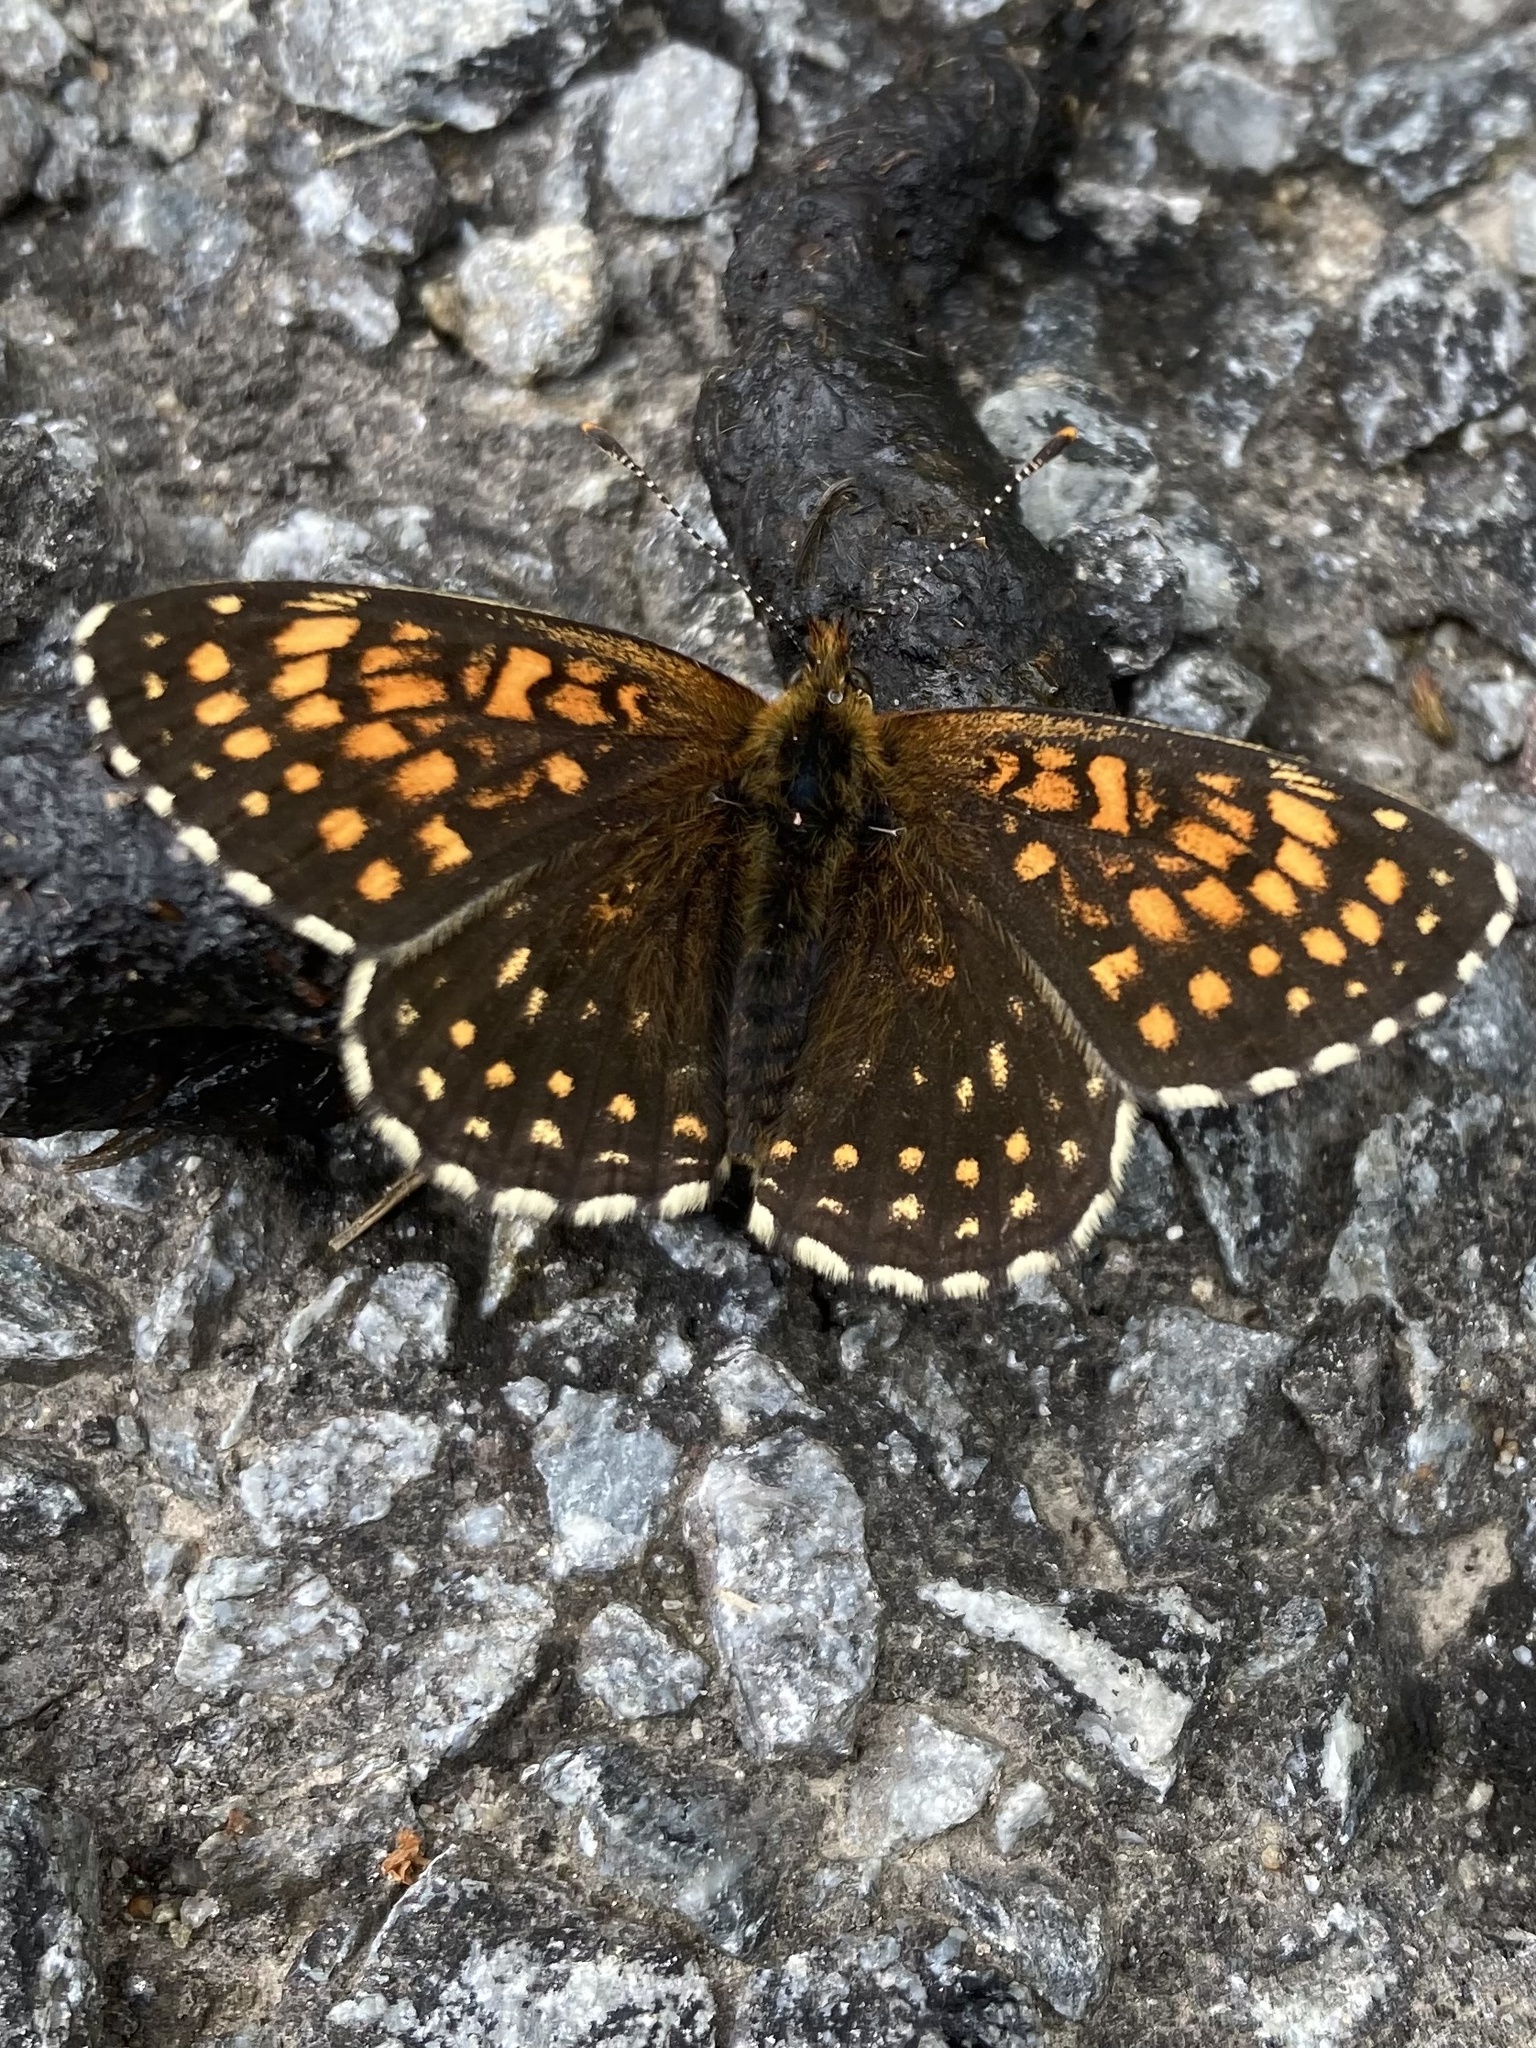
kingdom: Animalia
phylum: Arthropoda
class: Insecta
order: Lepidoptera
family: Nymphalidae
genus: Melitaea
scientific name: Melitaea diamina
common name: False heath fritillary
